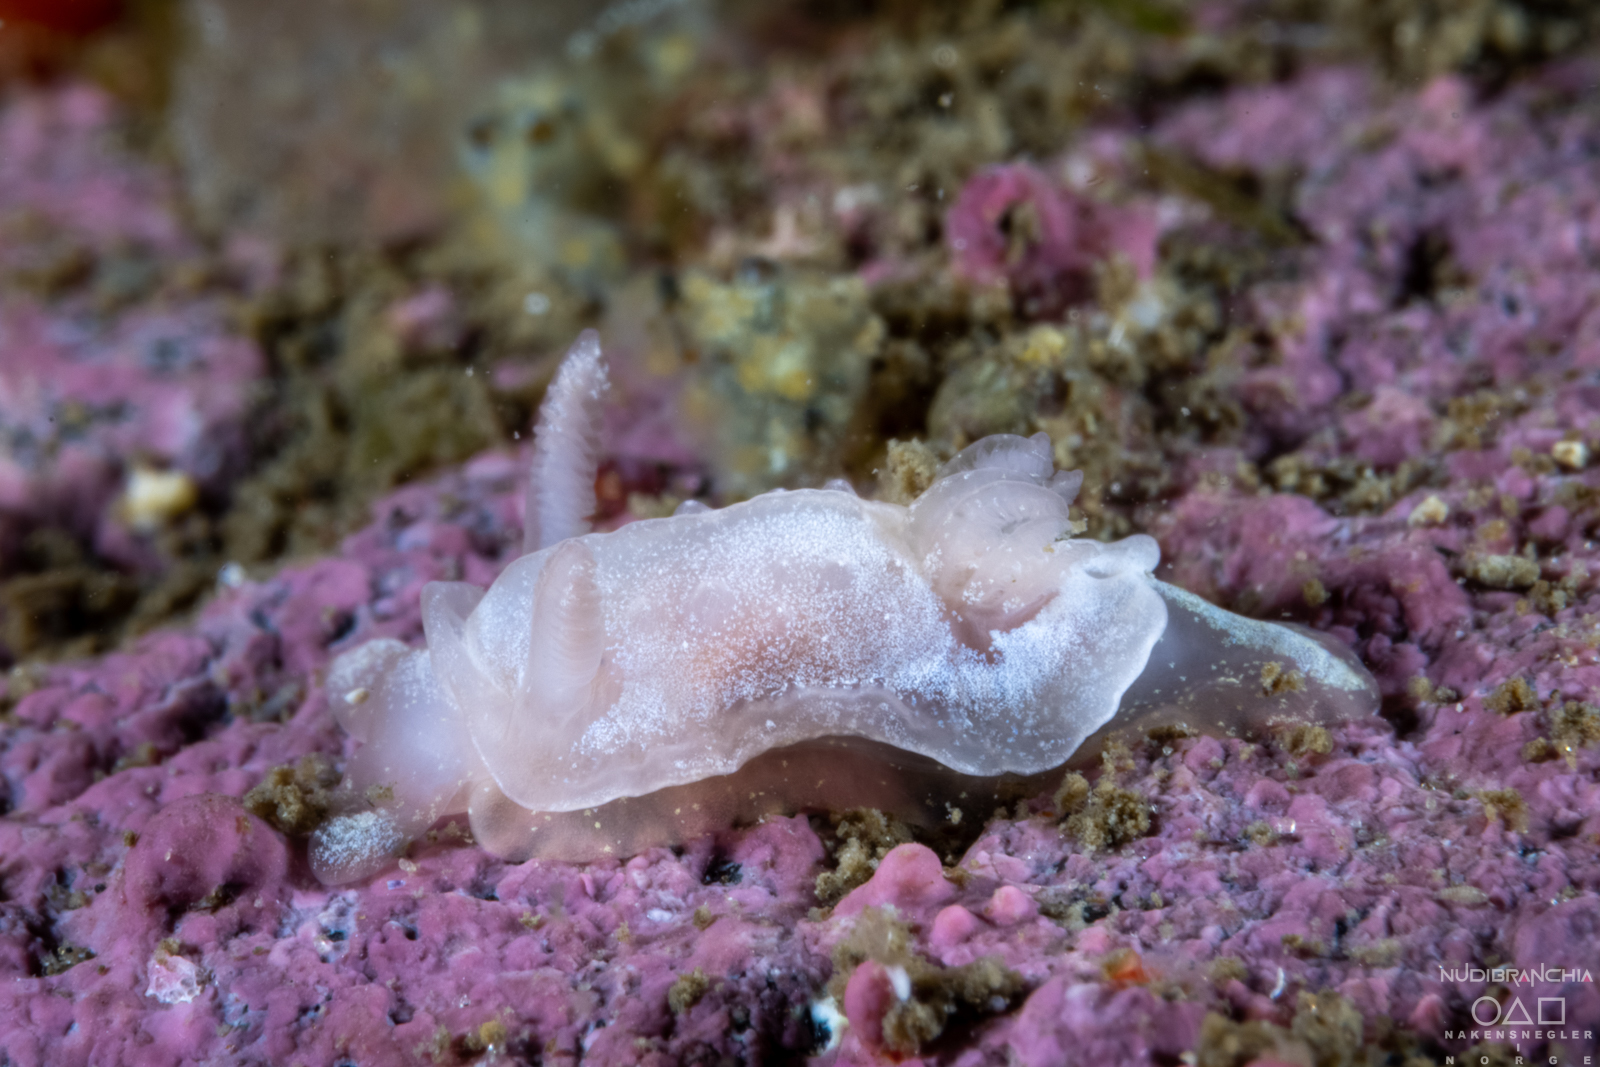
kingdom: Animalia
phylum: Mollusca
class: Gastropoda
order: Nudibranchia
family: Goniodorididae
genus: Okenia
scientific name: Okenia
